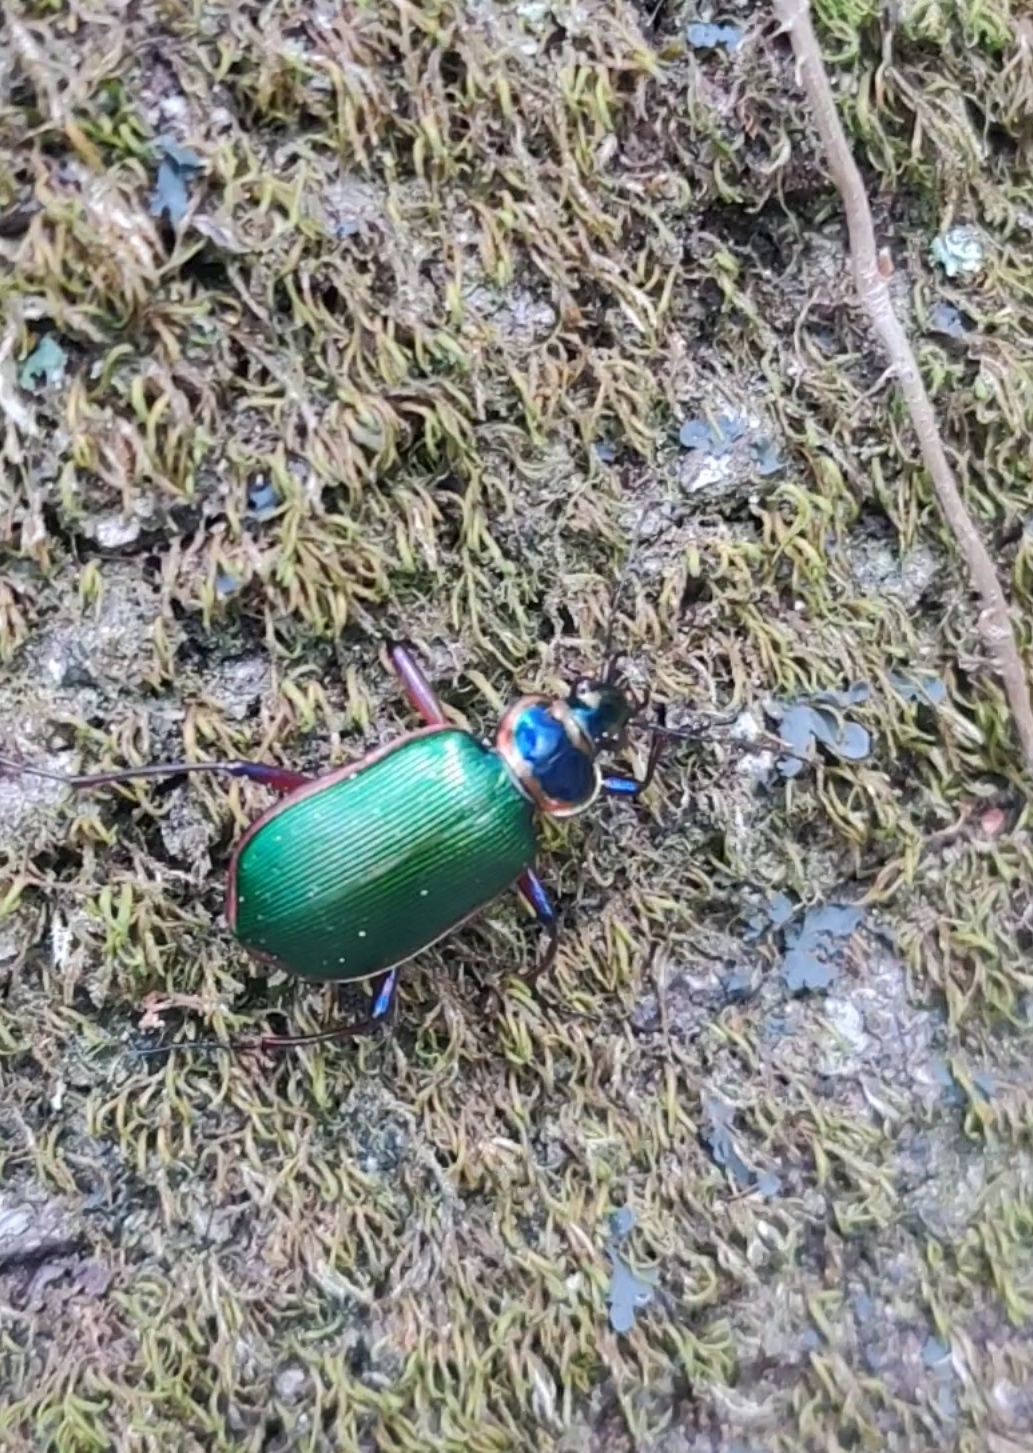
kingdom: Animalia
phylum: Arthropoda
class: Insecta
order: Coleoptera
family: Carabidae
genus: Calosoma
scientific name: Calosoma scrutator
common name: Fiery searcher beetle
